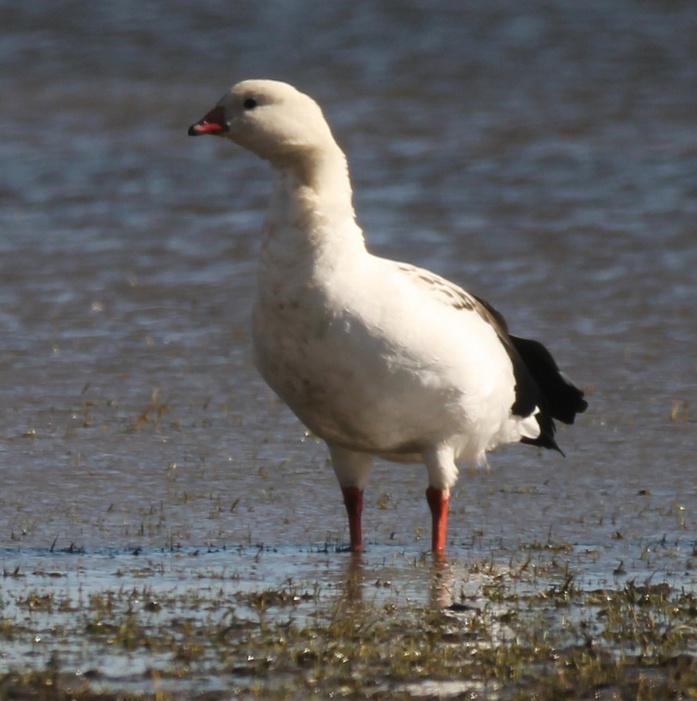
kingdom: Animalia
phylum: Chordata
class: Aves
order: Anseriformes
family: Anatidae
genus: Chloephaga
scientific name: Chloephaga melanoptera
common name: Andean goose
